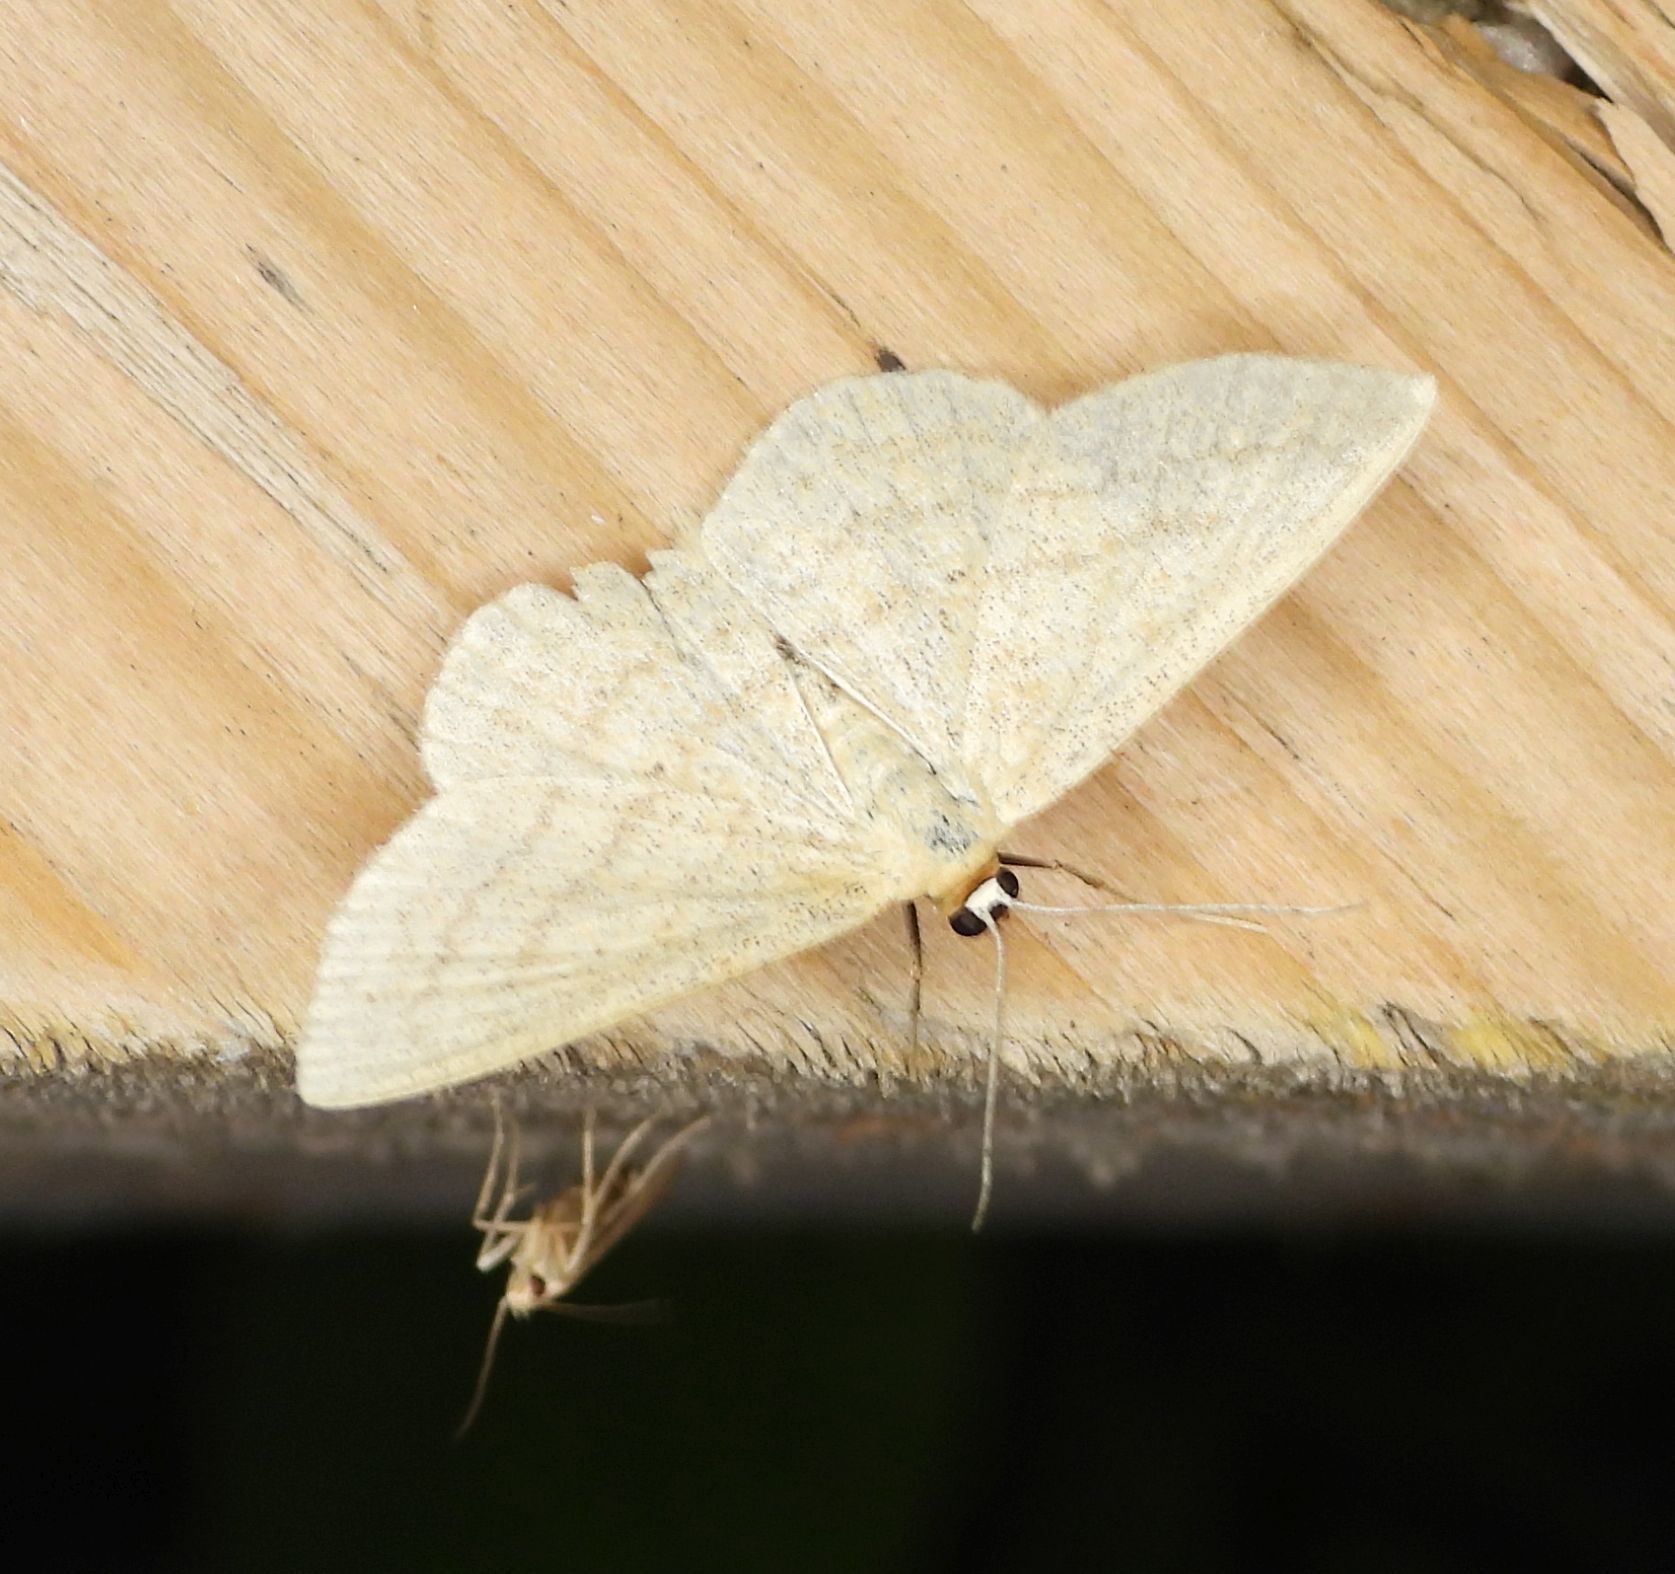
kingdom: Animalia
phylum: Arthropoda
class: Insecta
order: Lepidoptera
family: Geometridae
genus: Scopula
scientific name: Scopula inductata
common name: Soft-lined wave
